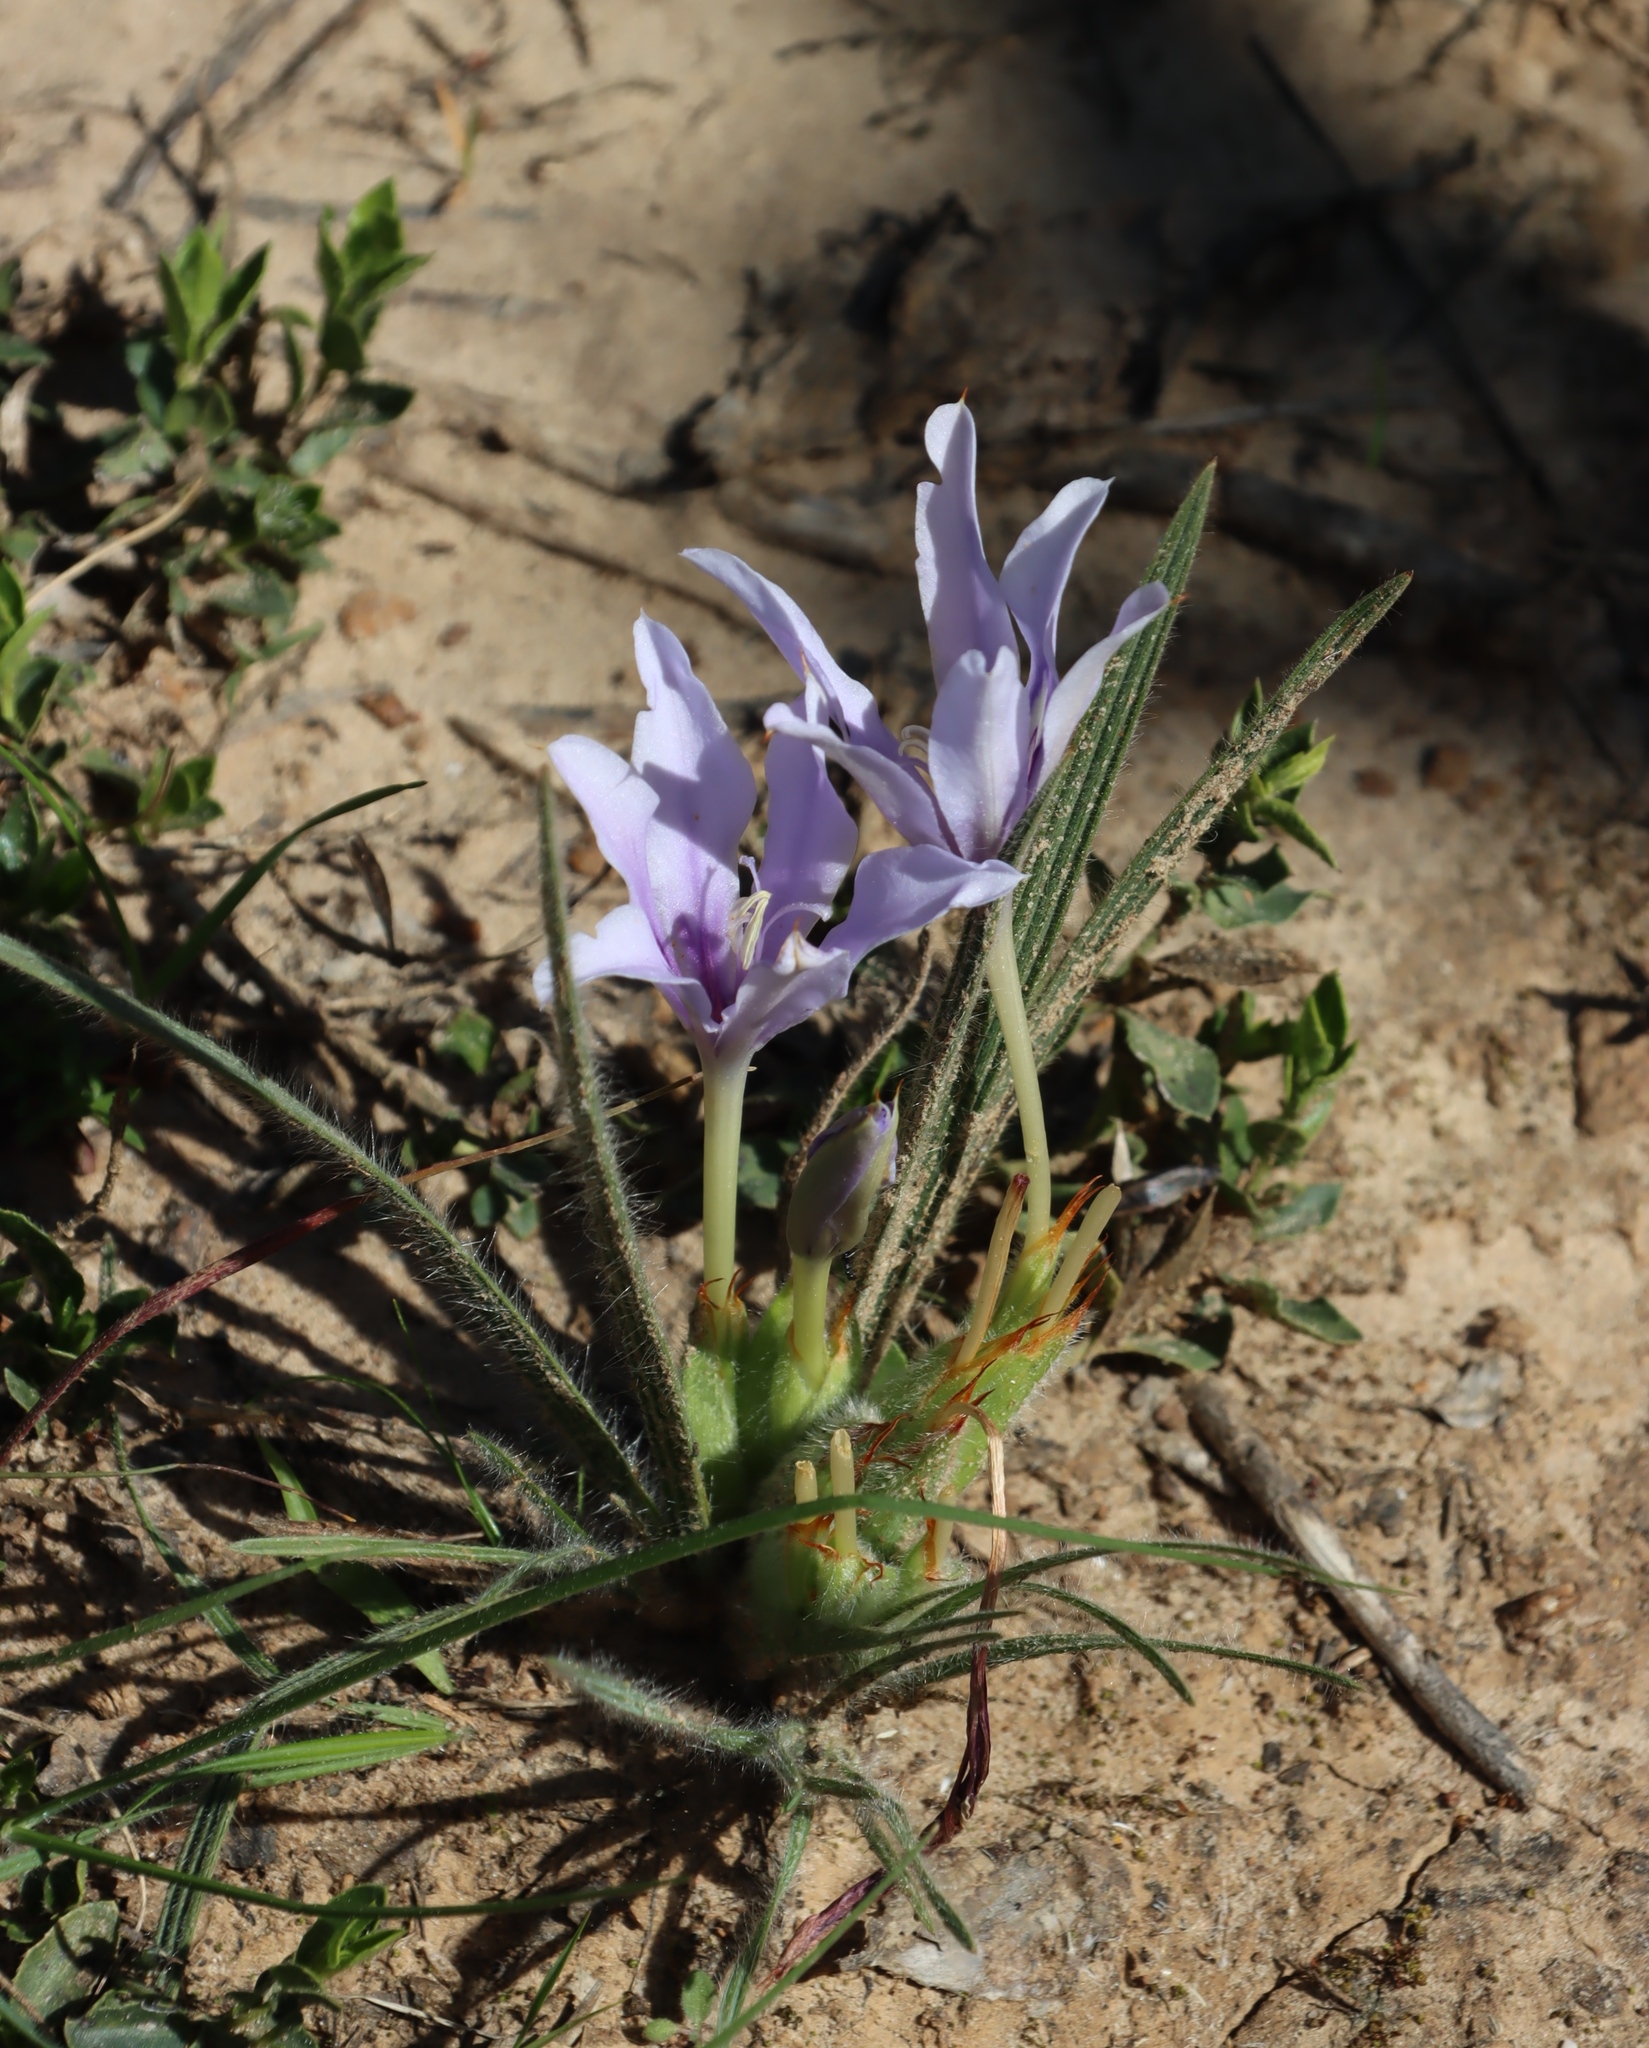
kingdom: Plantae
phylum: Tracheophyta
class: Liliopsida
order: Asparagales
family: Iridaceae
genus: Babiana
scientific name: Babiana sambucina
